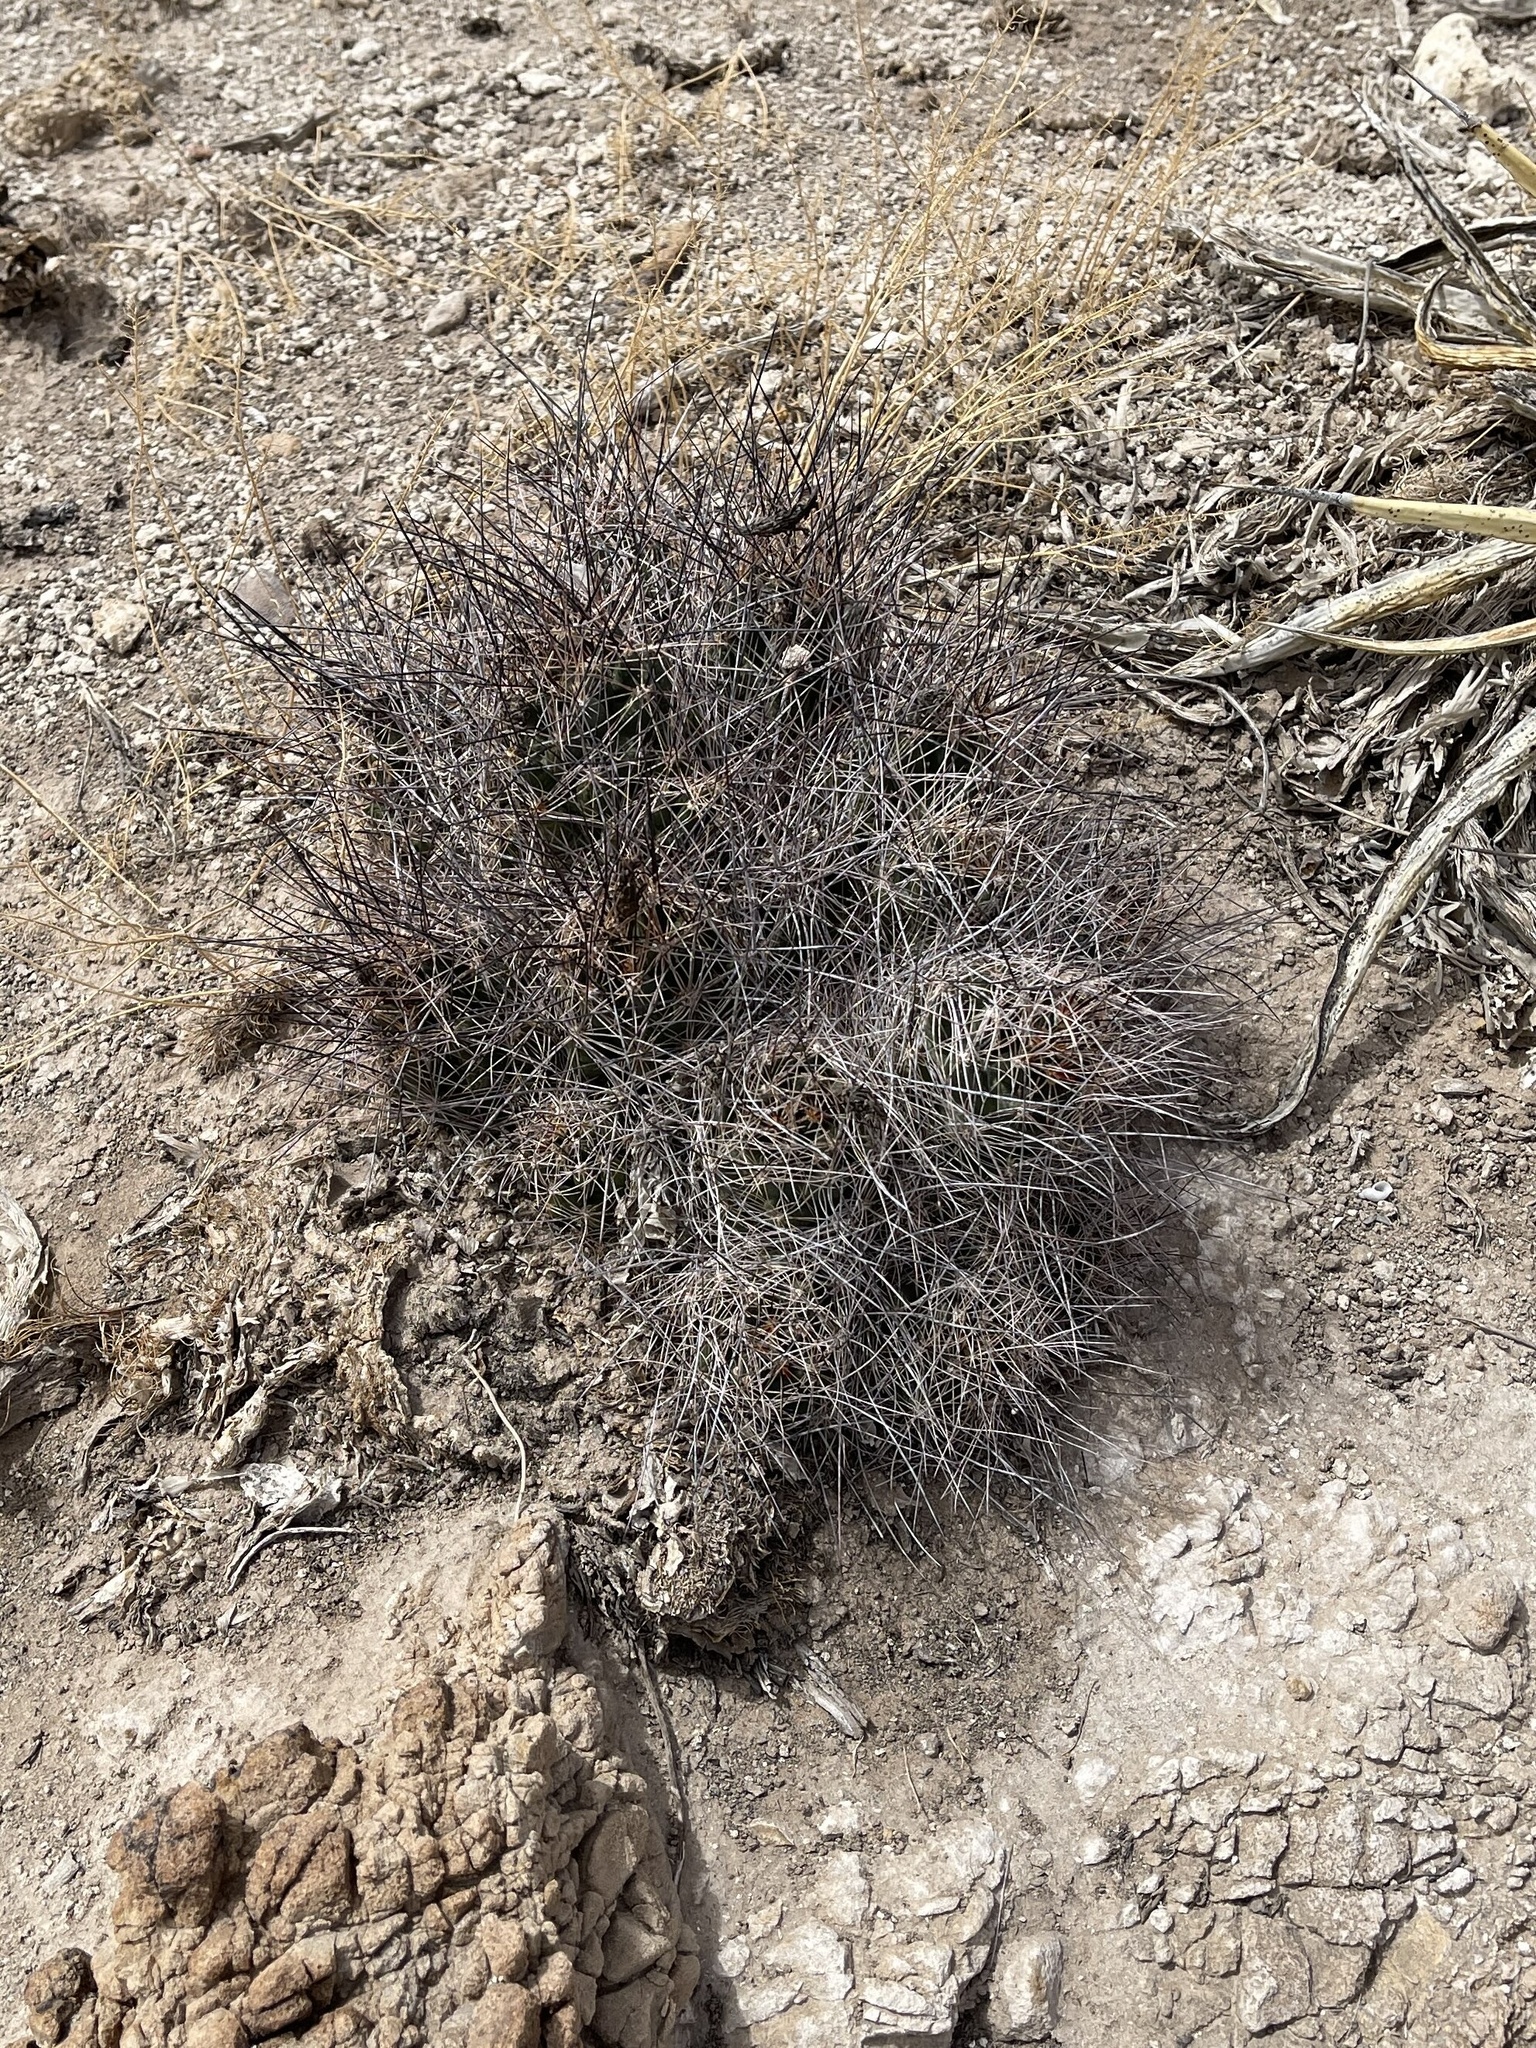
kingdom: Plantae
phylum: Tracheophyta
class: Magnoliopsida
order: Caryophyllales
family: Cactaceae
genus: Coryphantha
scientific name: Coryphantha macromeris
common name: Nipple beehive cactus
